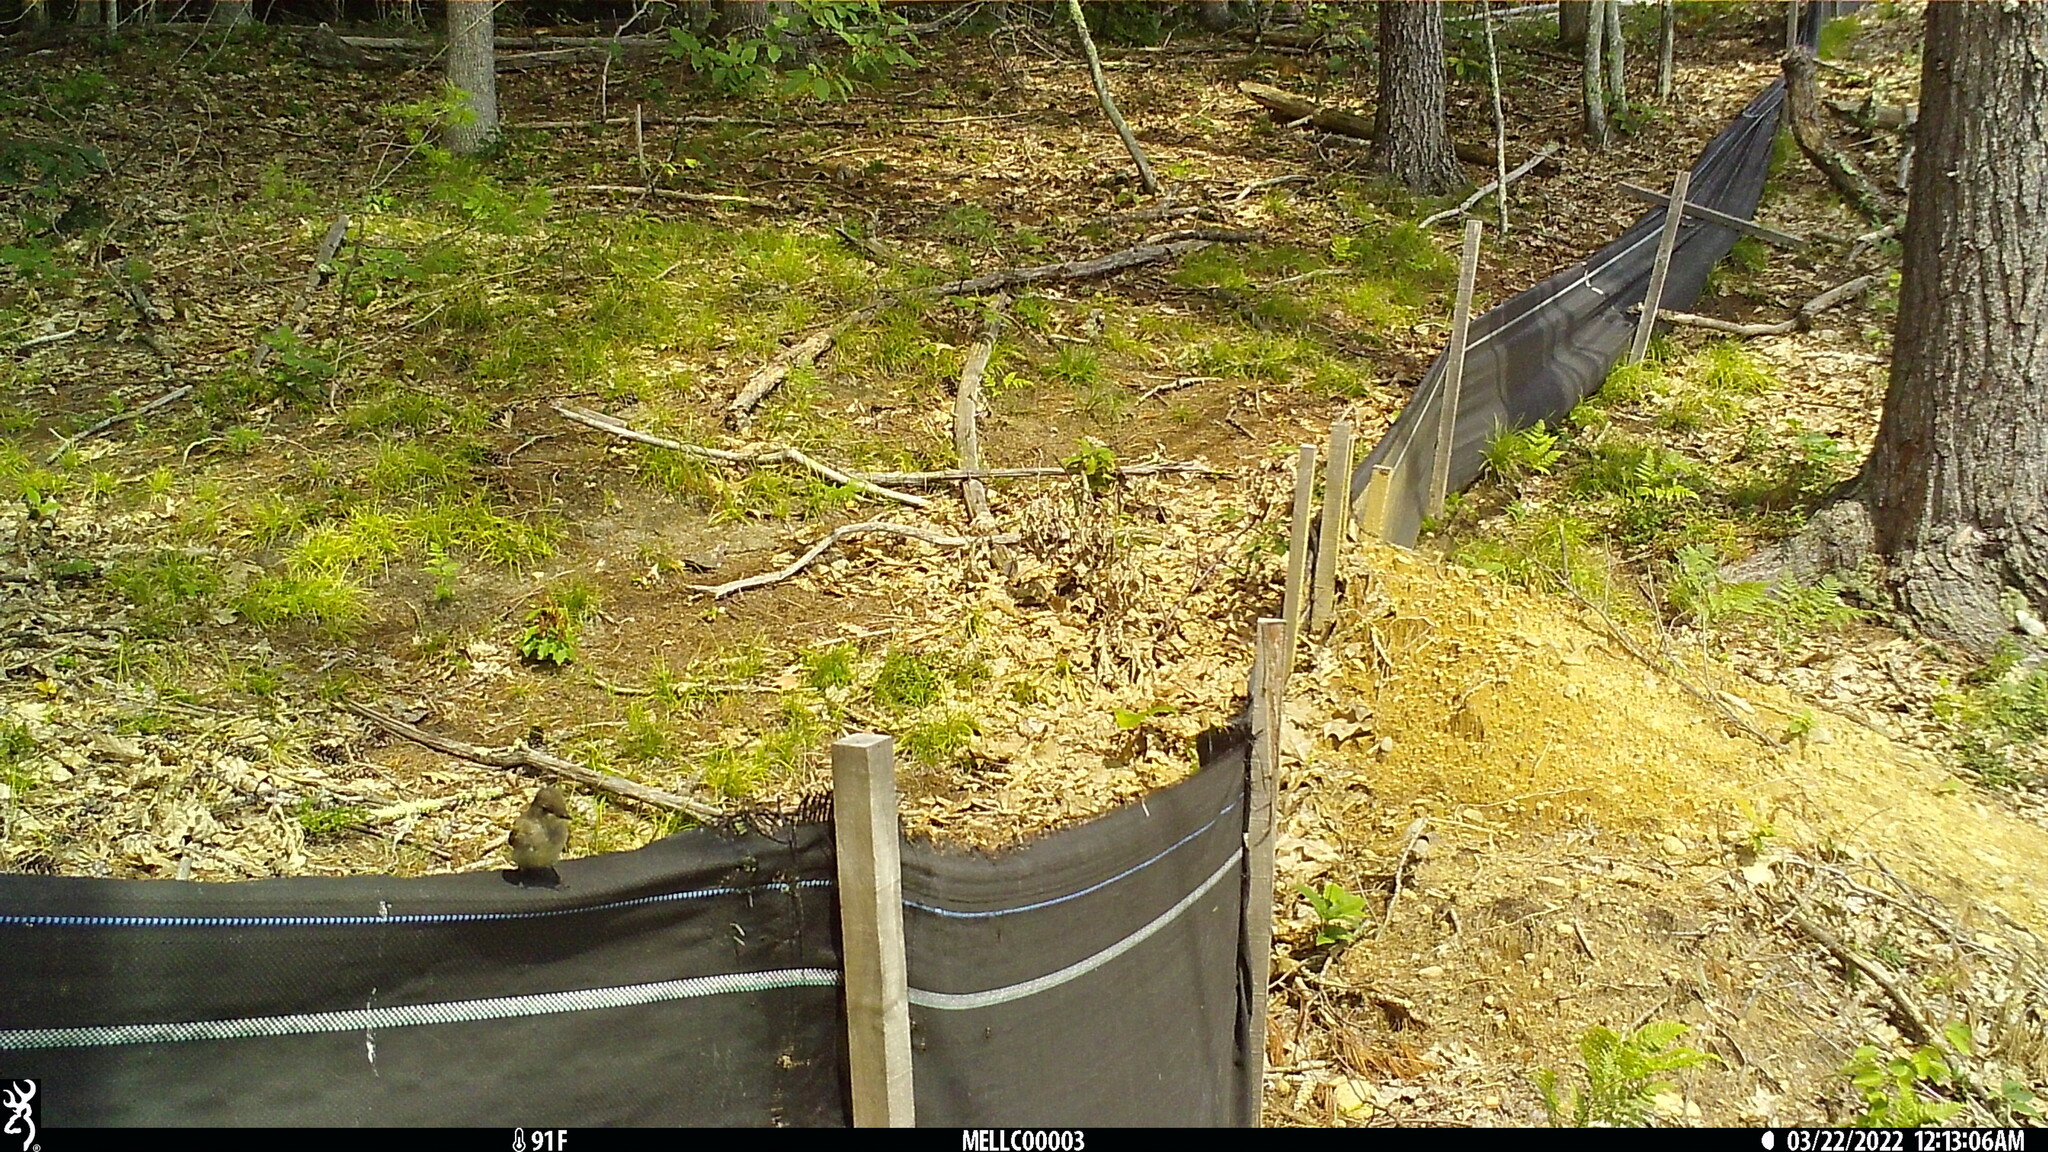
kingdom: Animalia
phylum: Chordata
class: Aves
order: Passeriformes
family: Tyrannidae
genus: Sayornis
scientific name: Sayornis phoebe
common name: Eastern phoebe
